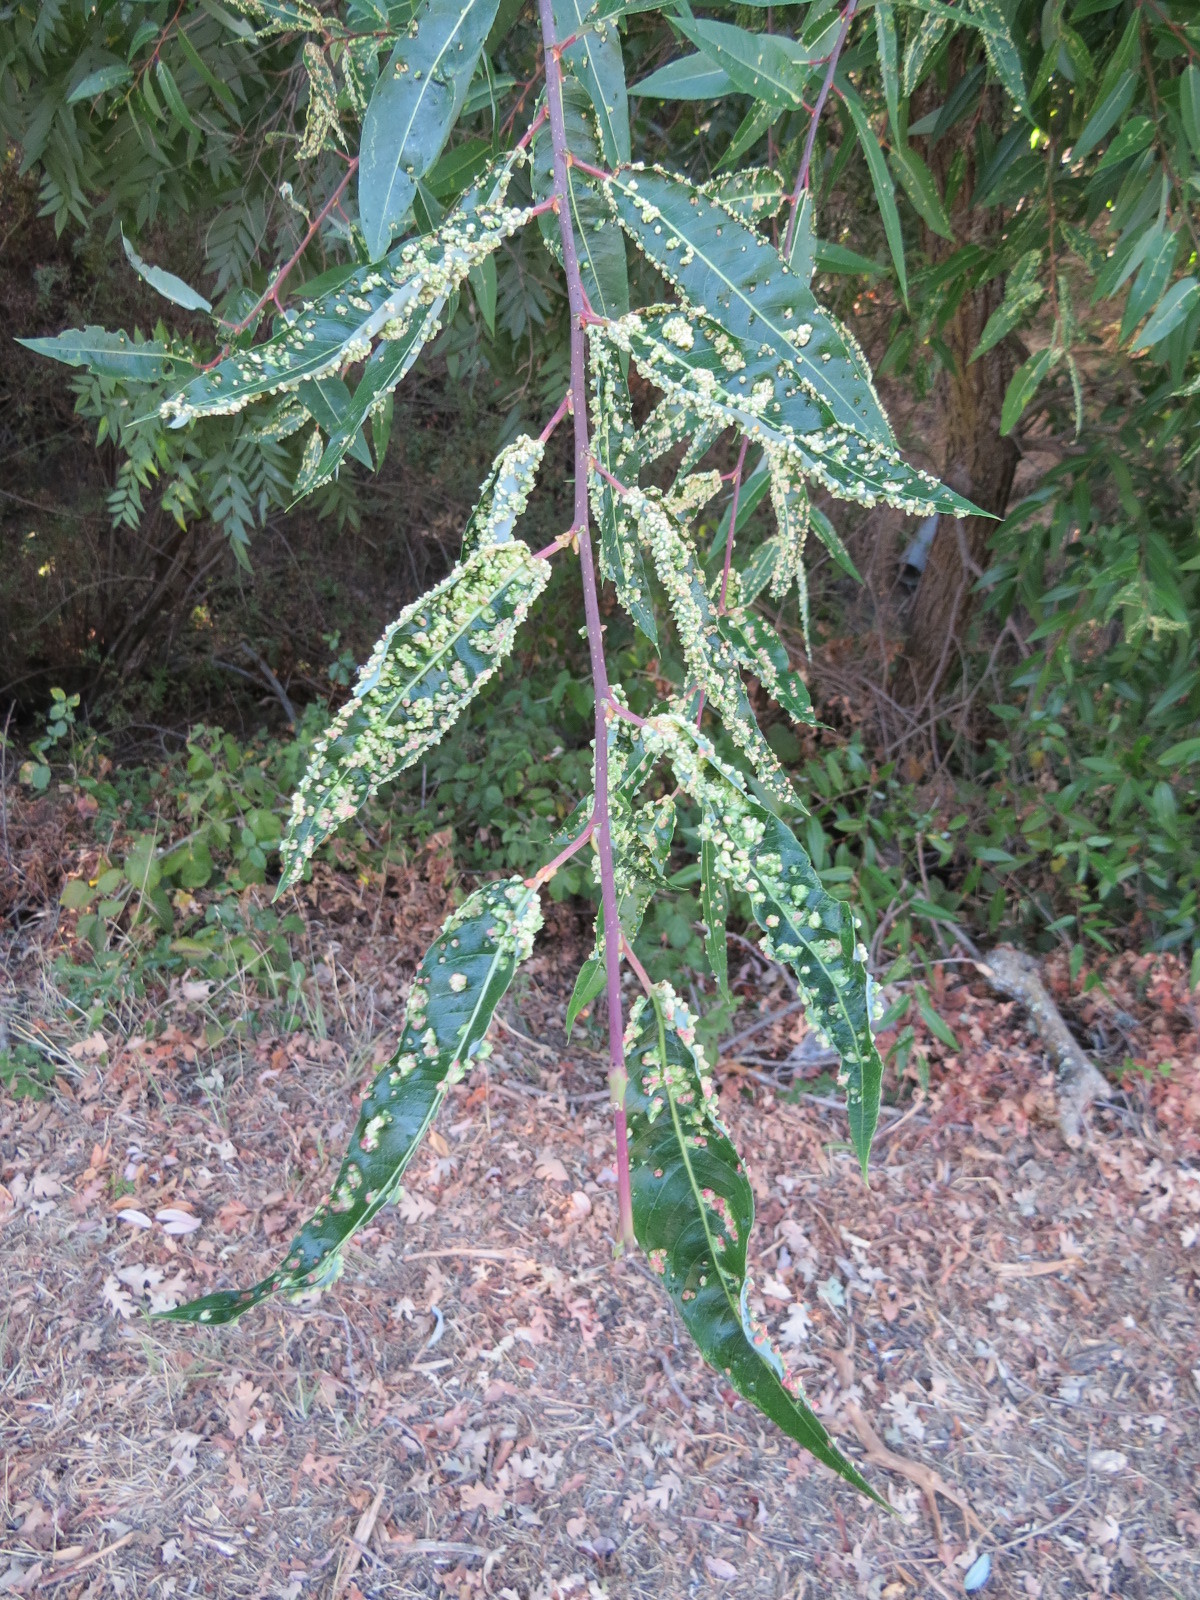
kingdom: Animalia
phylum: Arthropoda
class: Arachnida
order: Trombidiformes
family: Eriophyidae
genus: Aculus
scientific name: Aculus tetanothrix
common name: Willow bead gall mite
